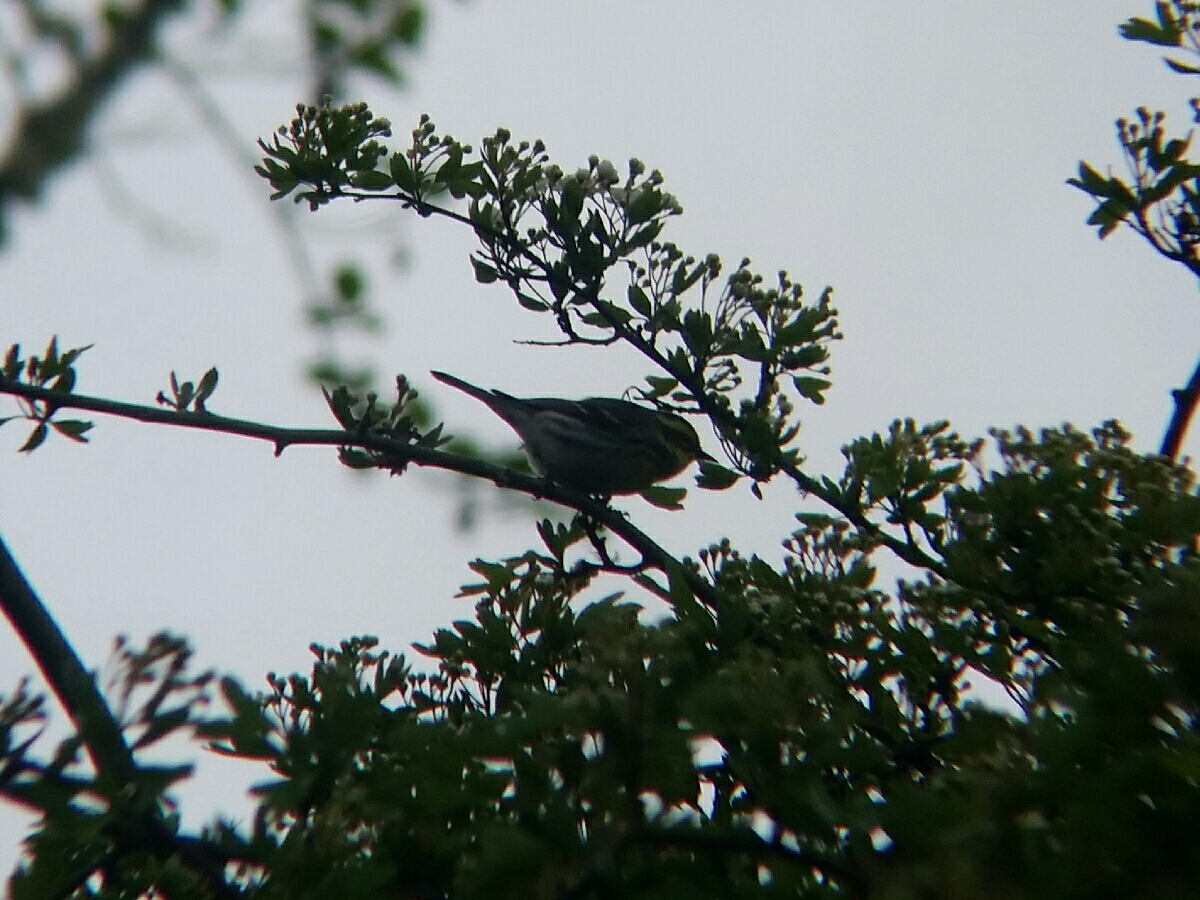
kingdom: Animalia
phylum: Chordata
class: Aves
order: Passeriformes
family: Parulidae
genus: Setophaga
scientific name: Setophaga townsendi
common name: Townsend's warbler
